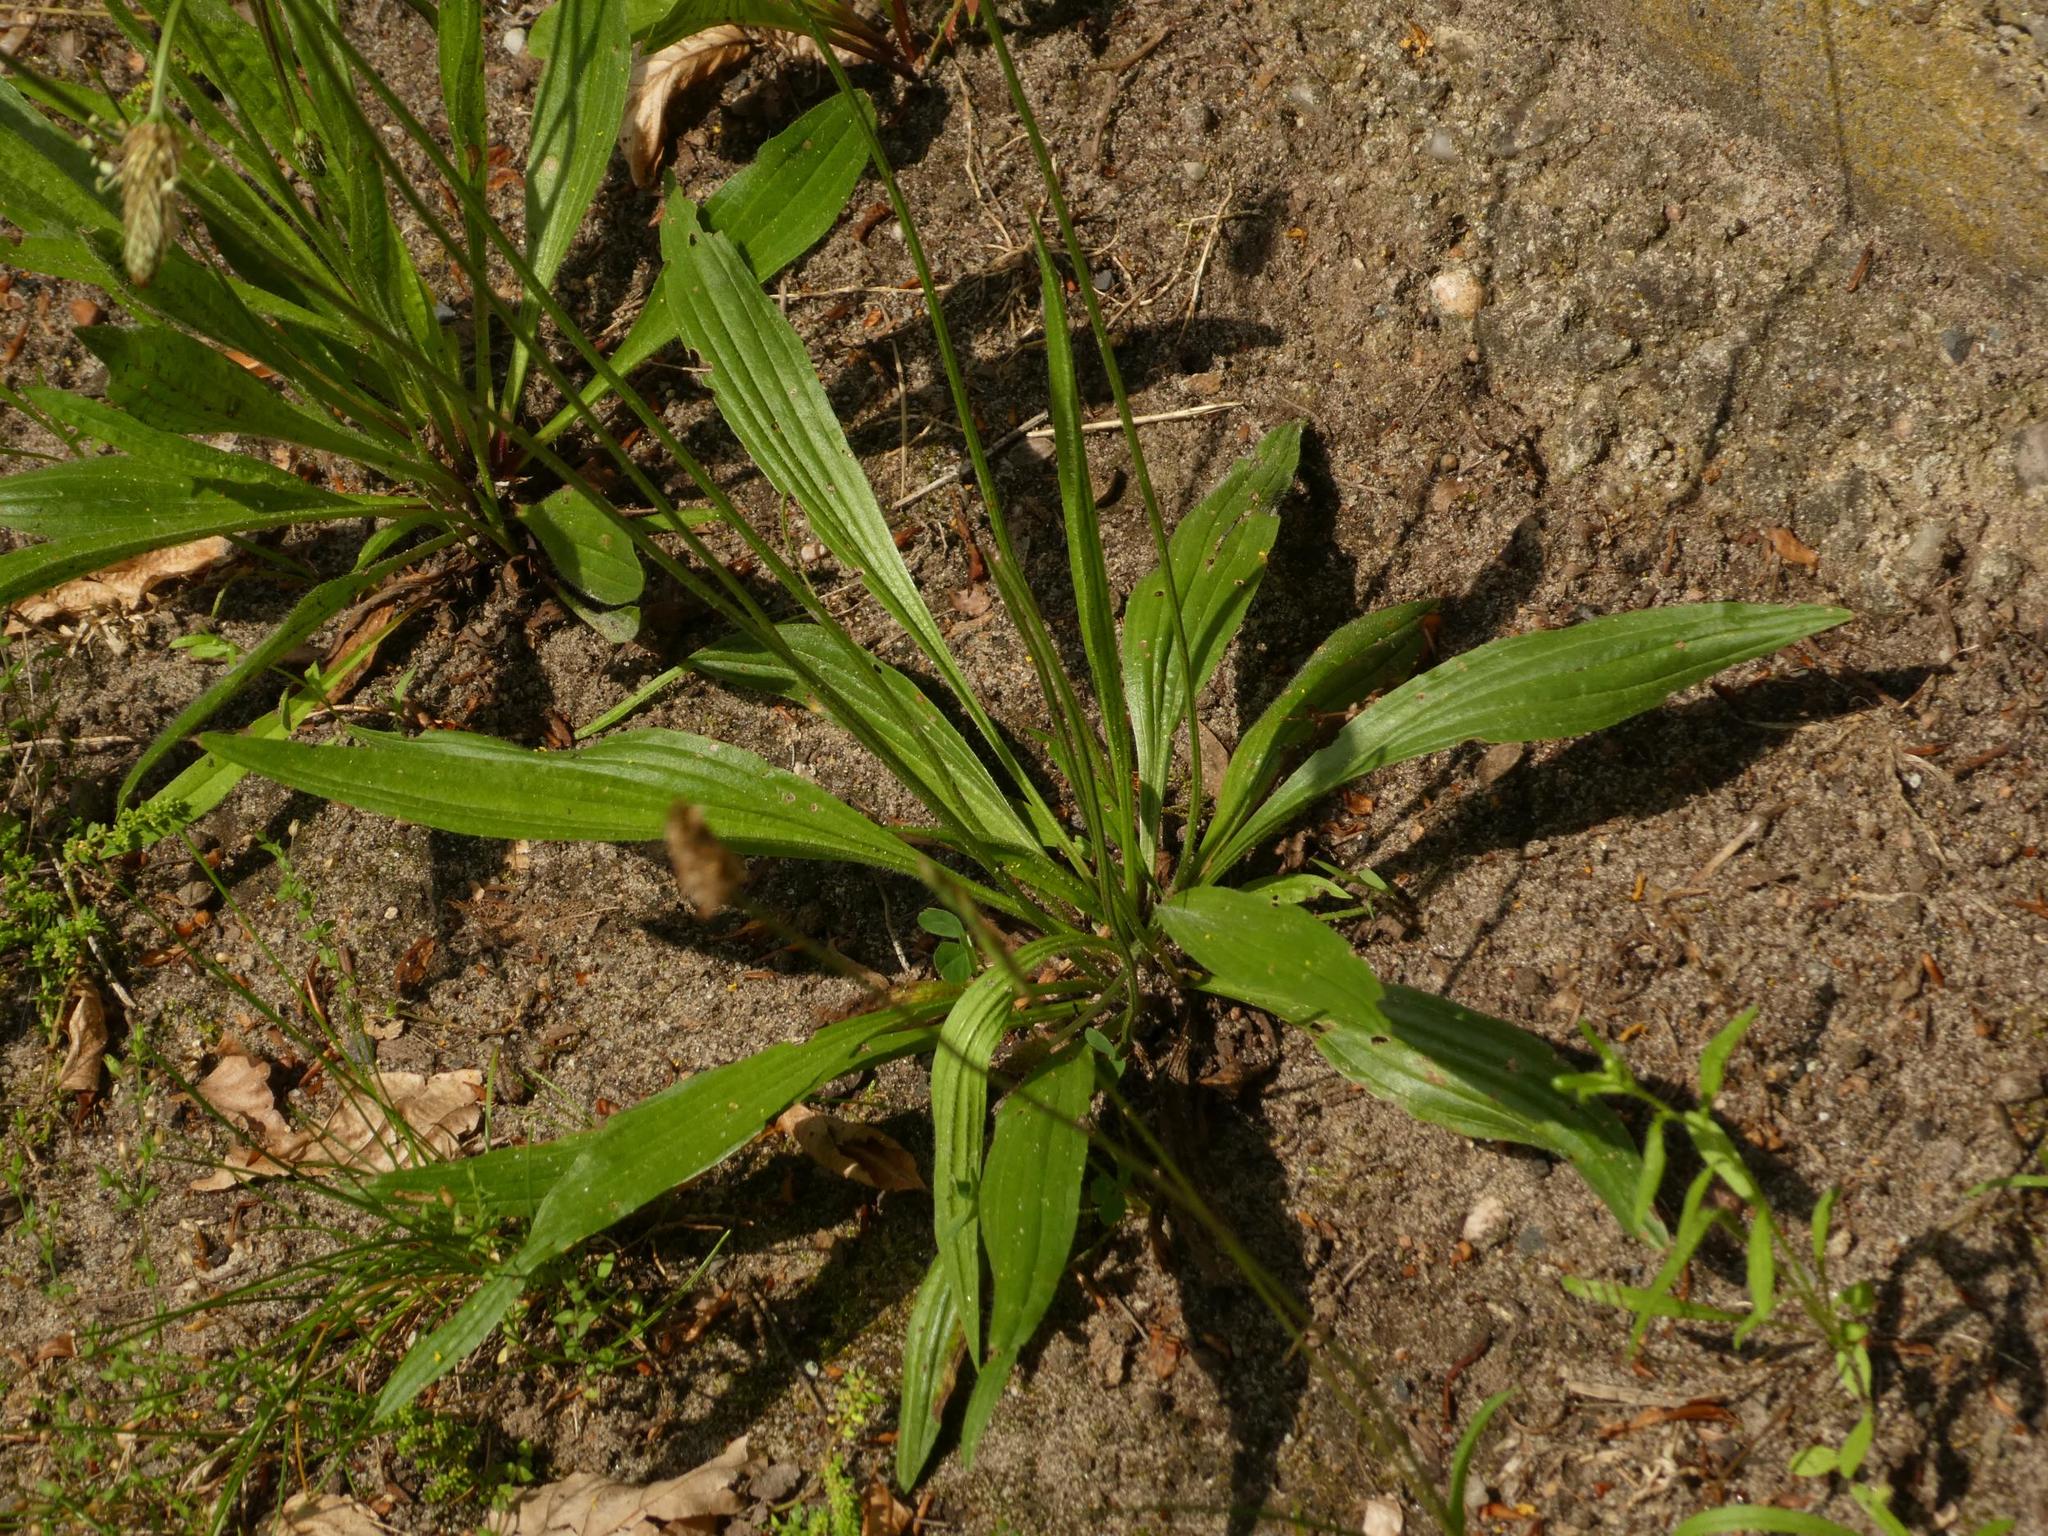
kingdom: Plantae
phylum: Tracheophyta
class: Magnoliopsida
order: Lamiales
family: Plantaginaceae
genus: Plantago
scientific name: Plantago lanceolata
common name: Ribwort plantain
